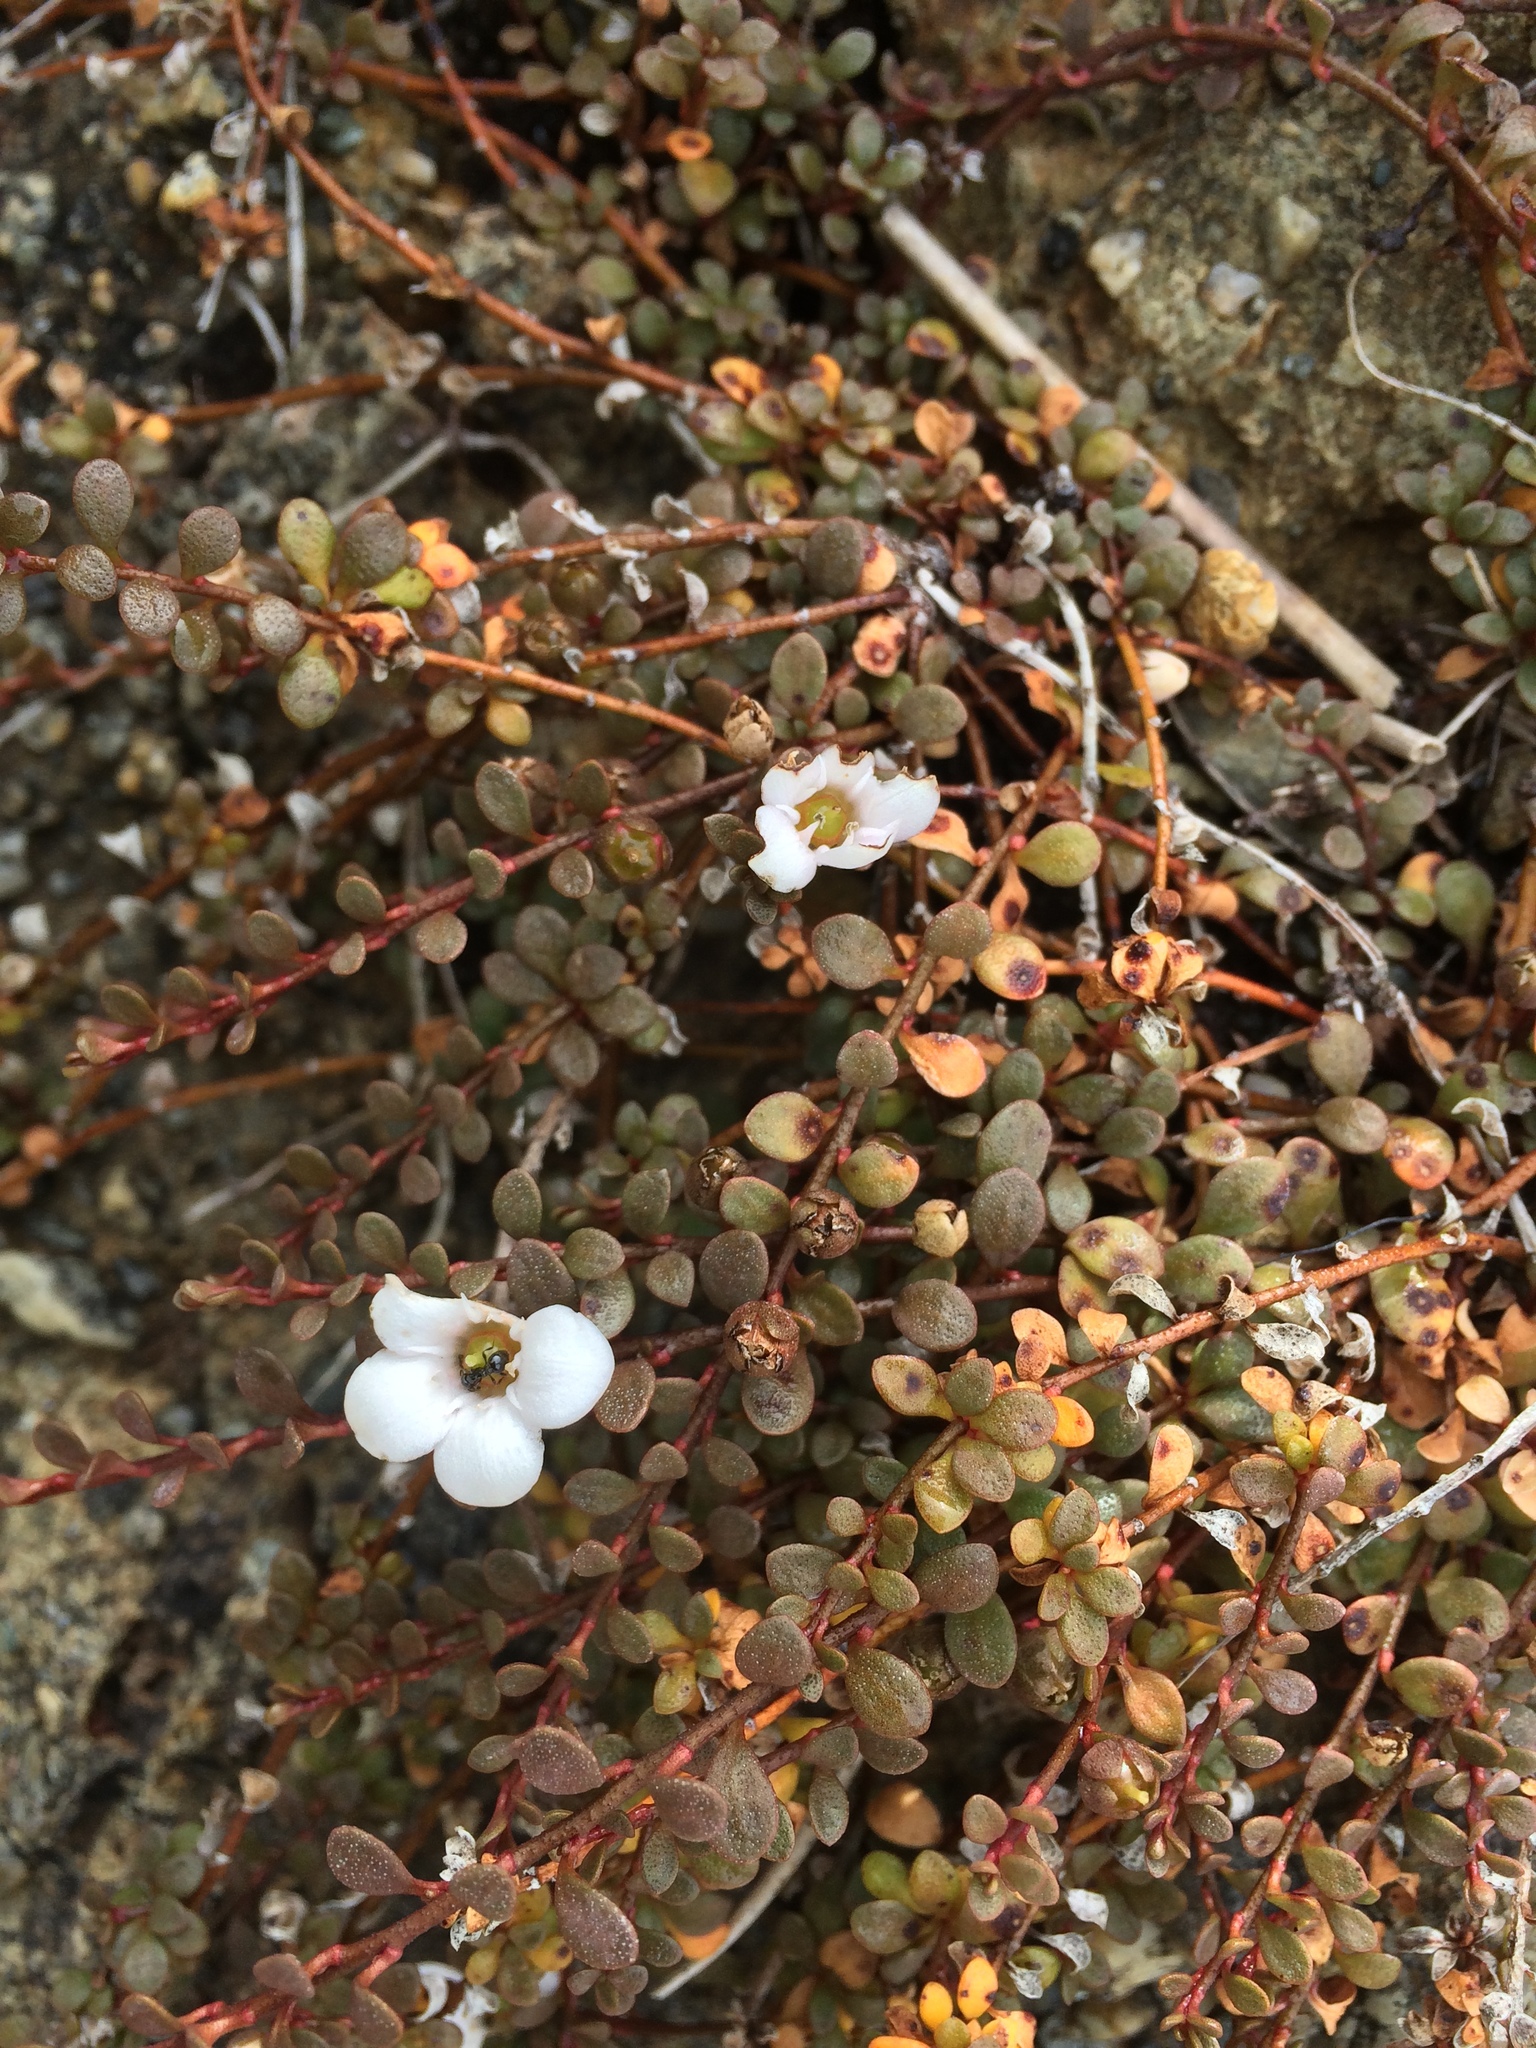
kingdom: Plantae
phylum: Tracheophyta
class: Magnoliopsida
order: Ericales
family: Primulaceae
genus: Samolus
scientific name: Samolus repens
